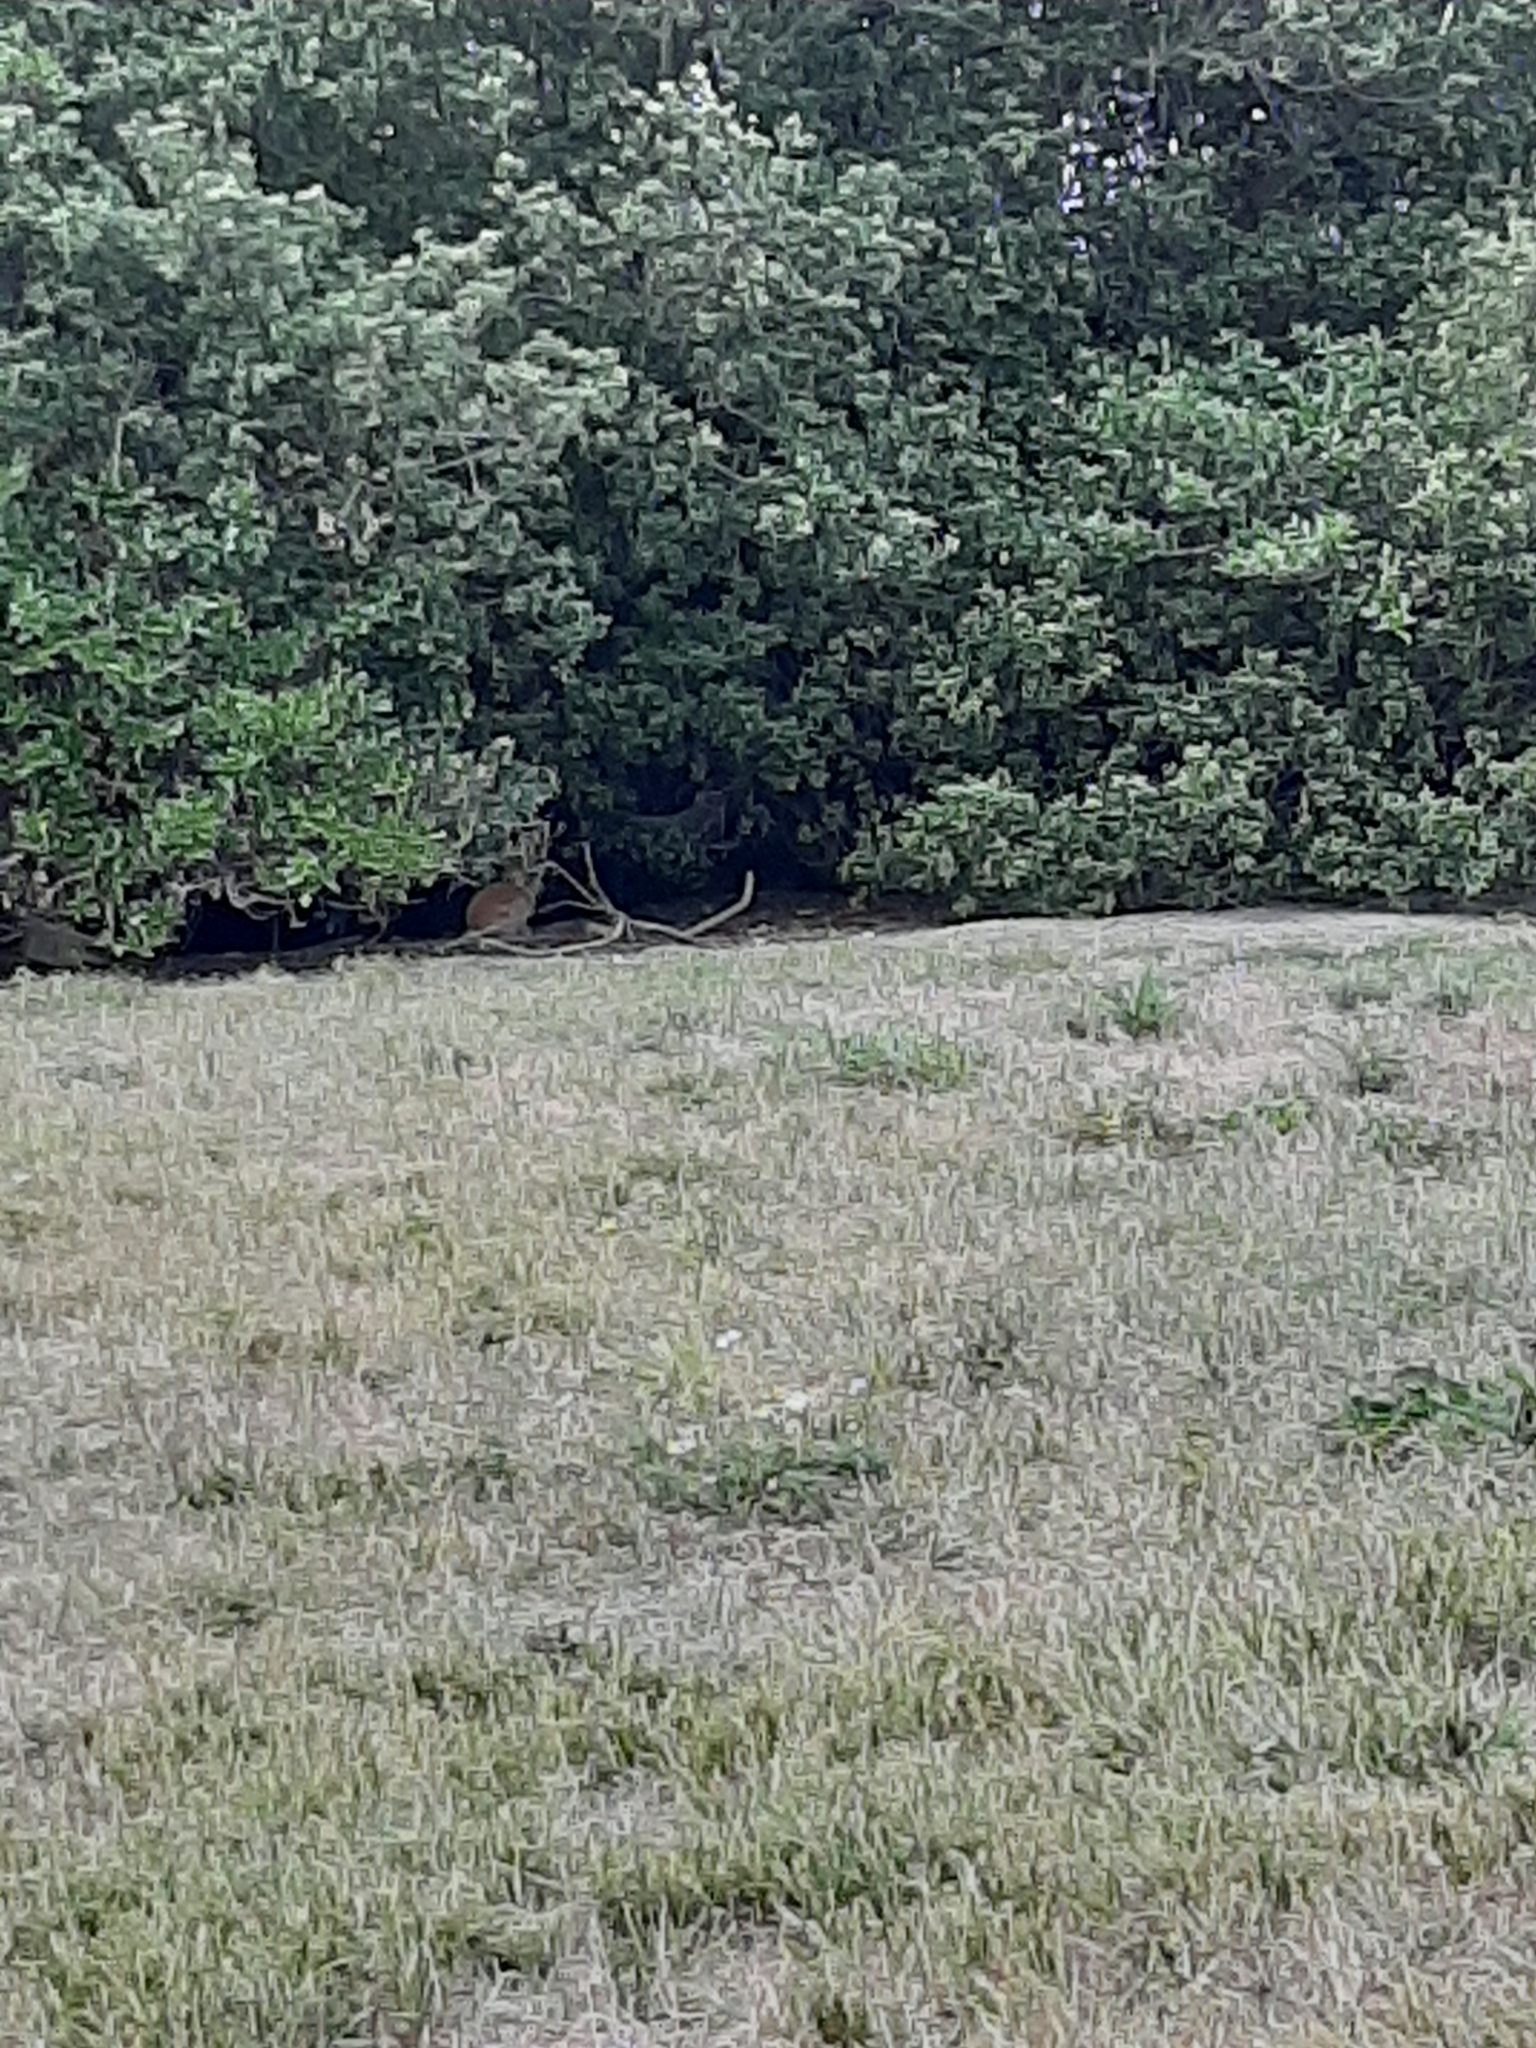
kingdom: Animalia
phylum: Chordata
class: Mammalia
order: Lagomorpha
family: Leporidae
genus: Oryctolagus
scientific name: Oryctolagus cuniculus
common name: European rabbit
